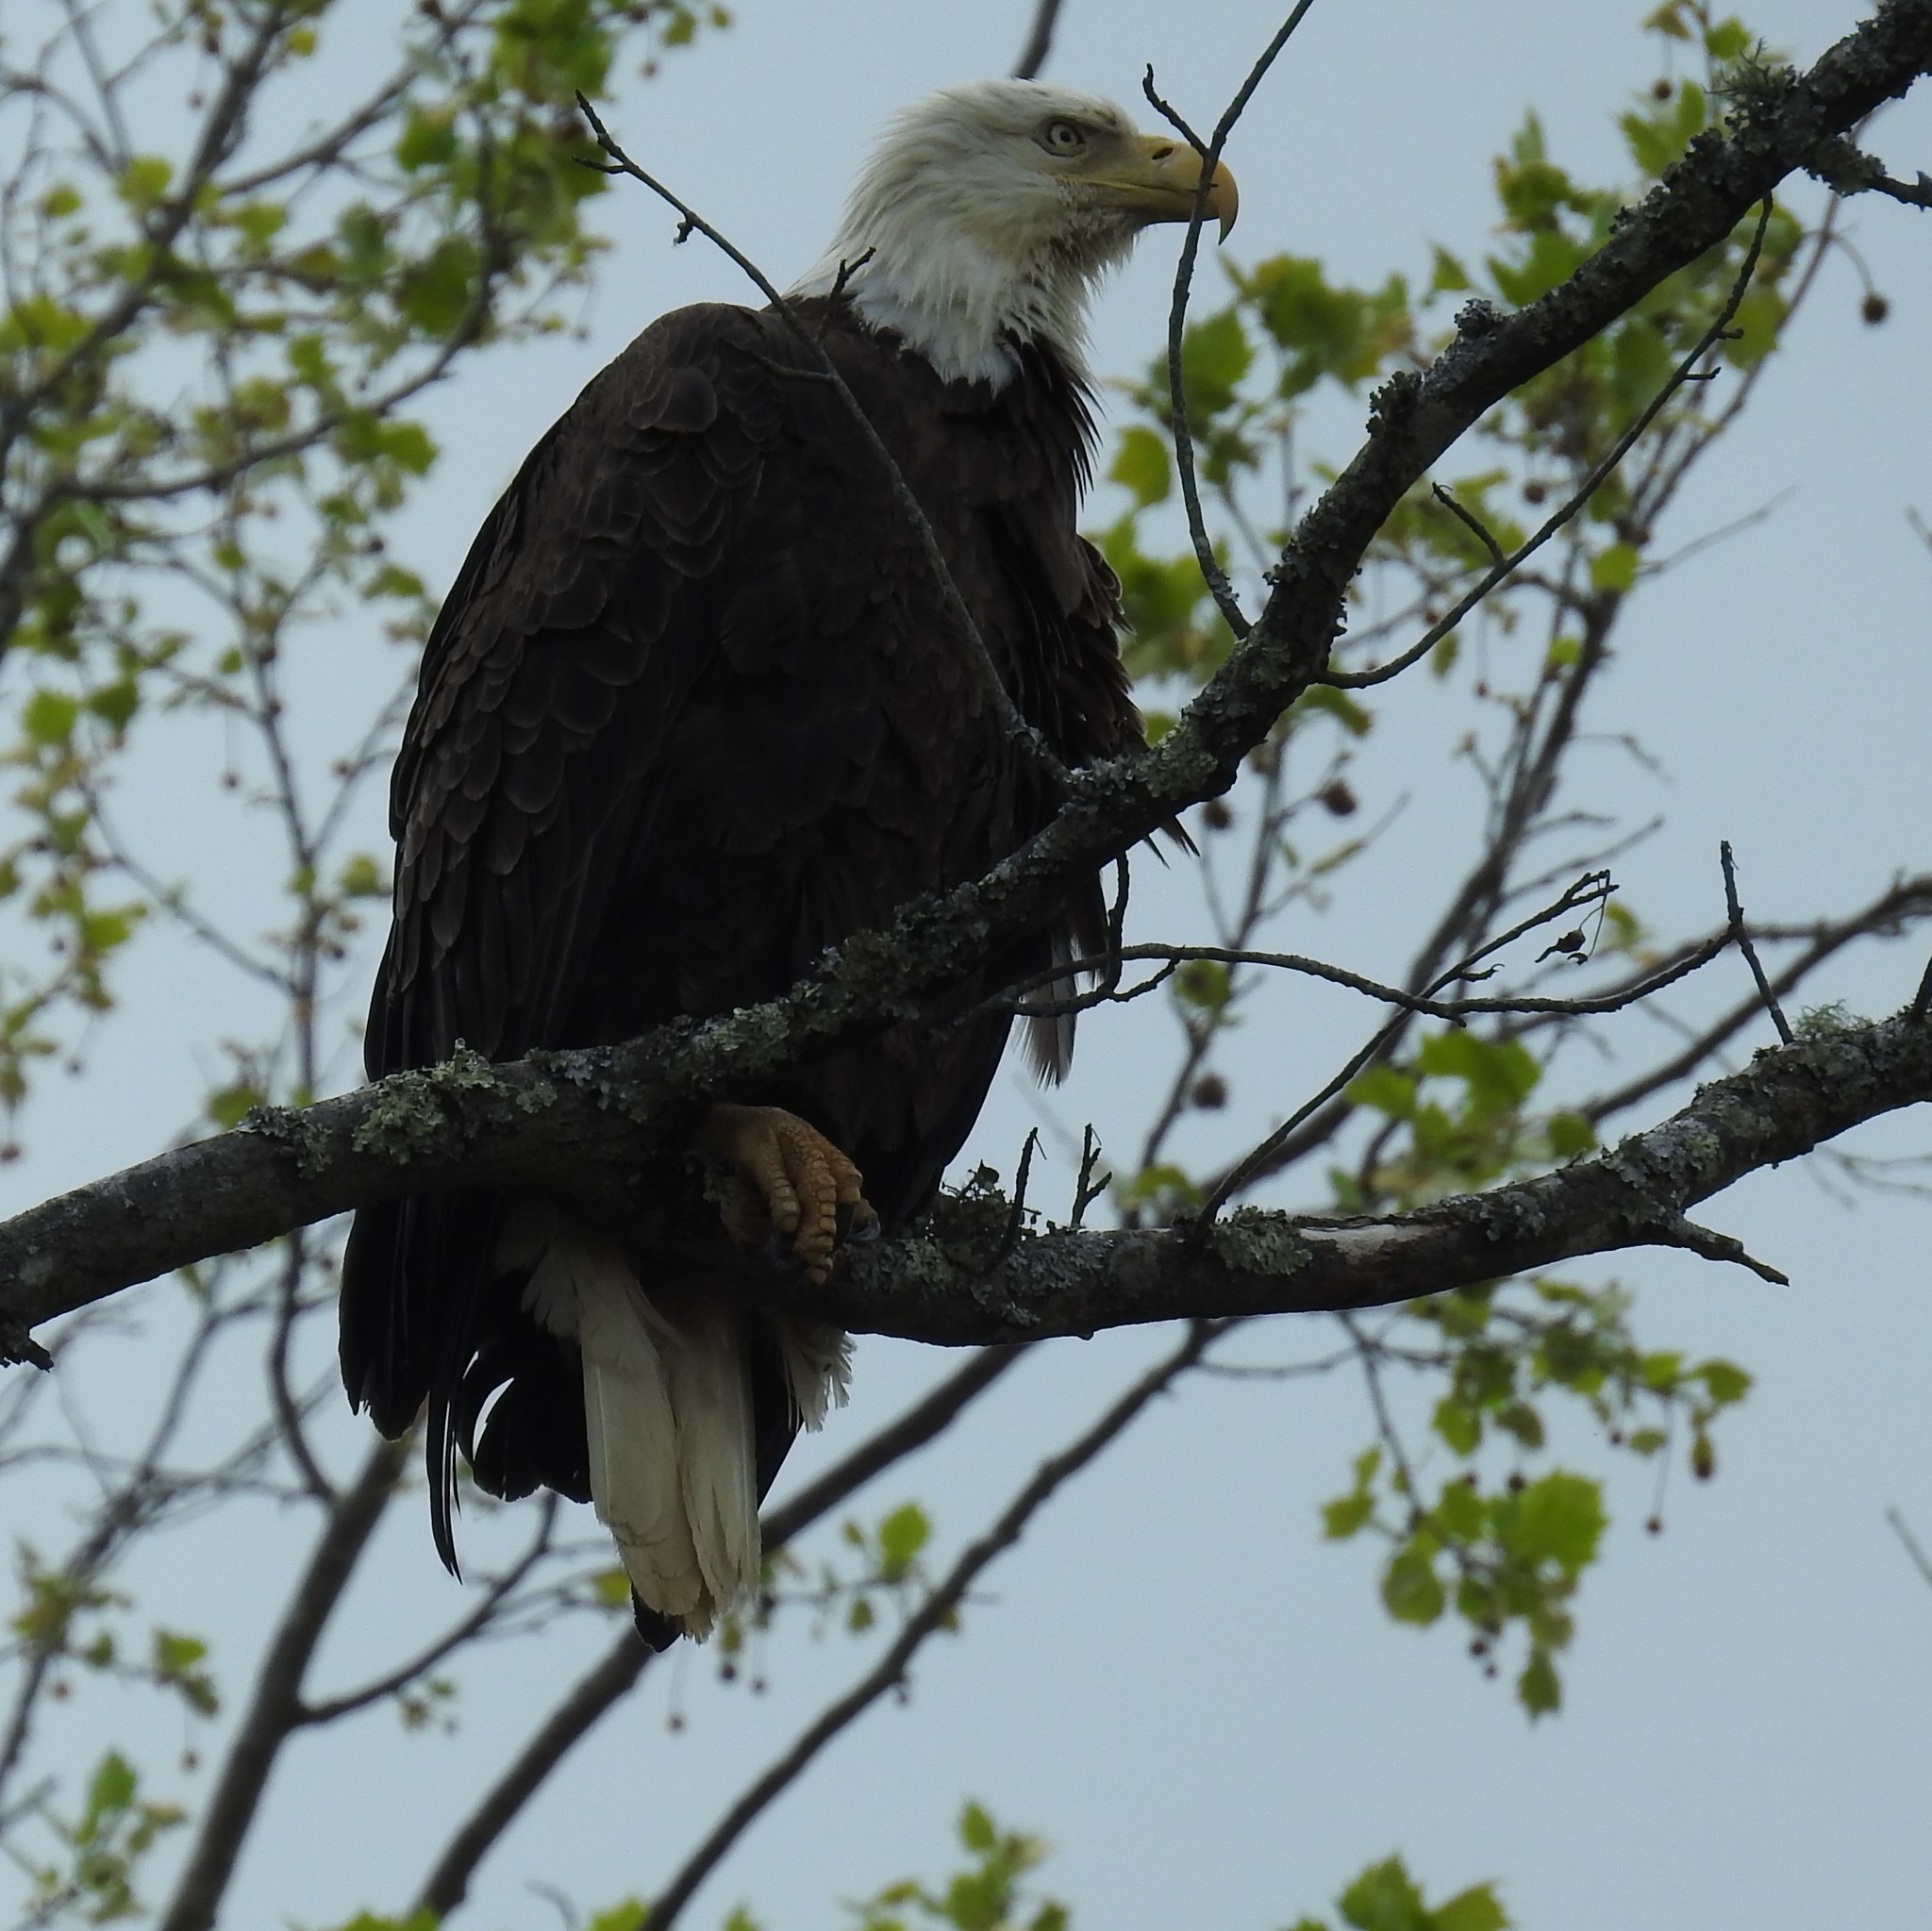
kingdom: Animalia
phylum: Chordata
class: Aves
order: Accipitriformes
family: Accipitridae
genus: Haliaeetus
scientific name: Haliaeetus leucocephalus
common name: Bald eagle
